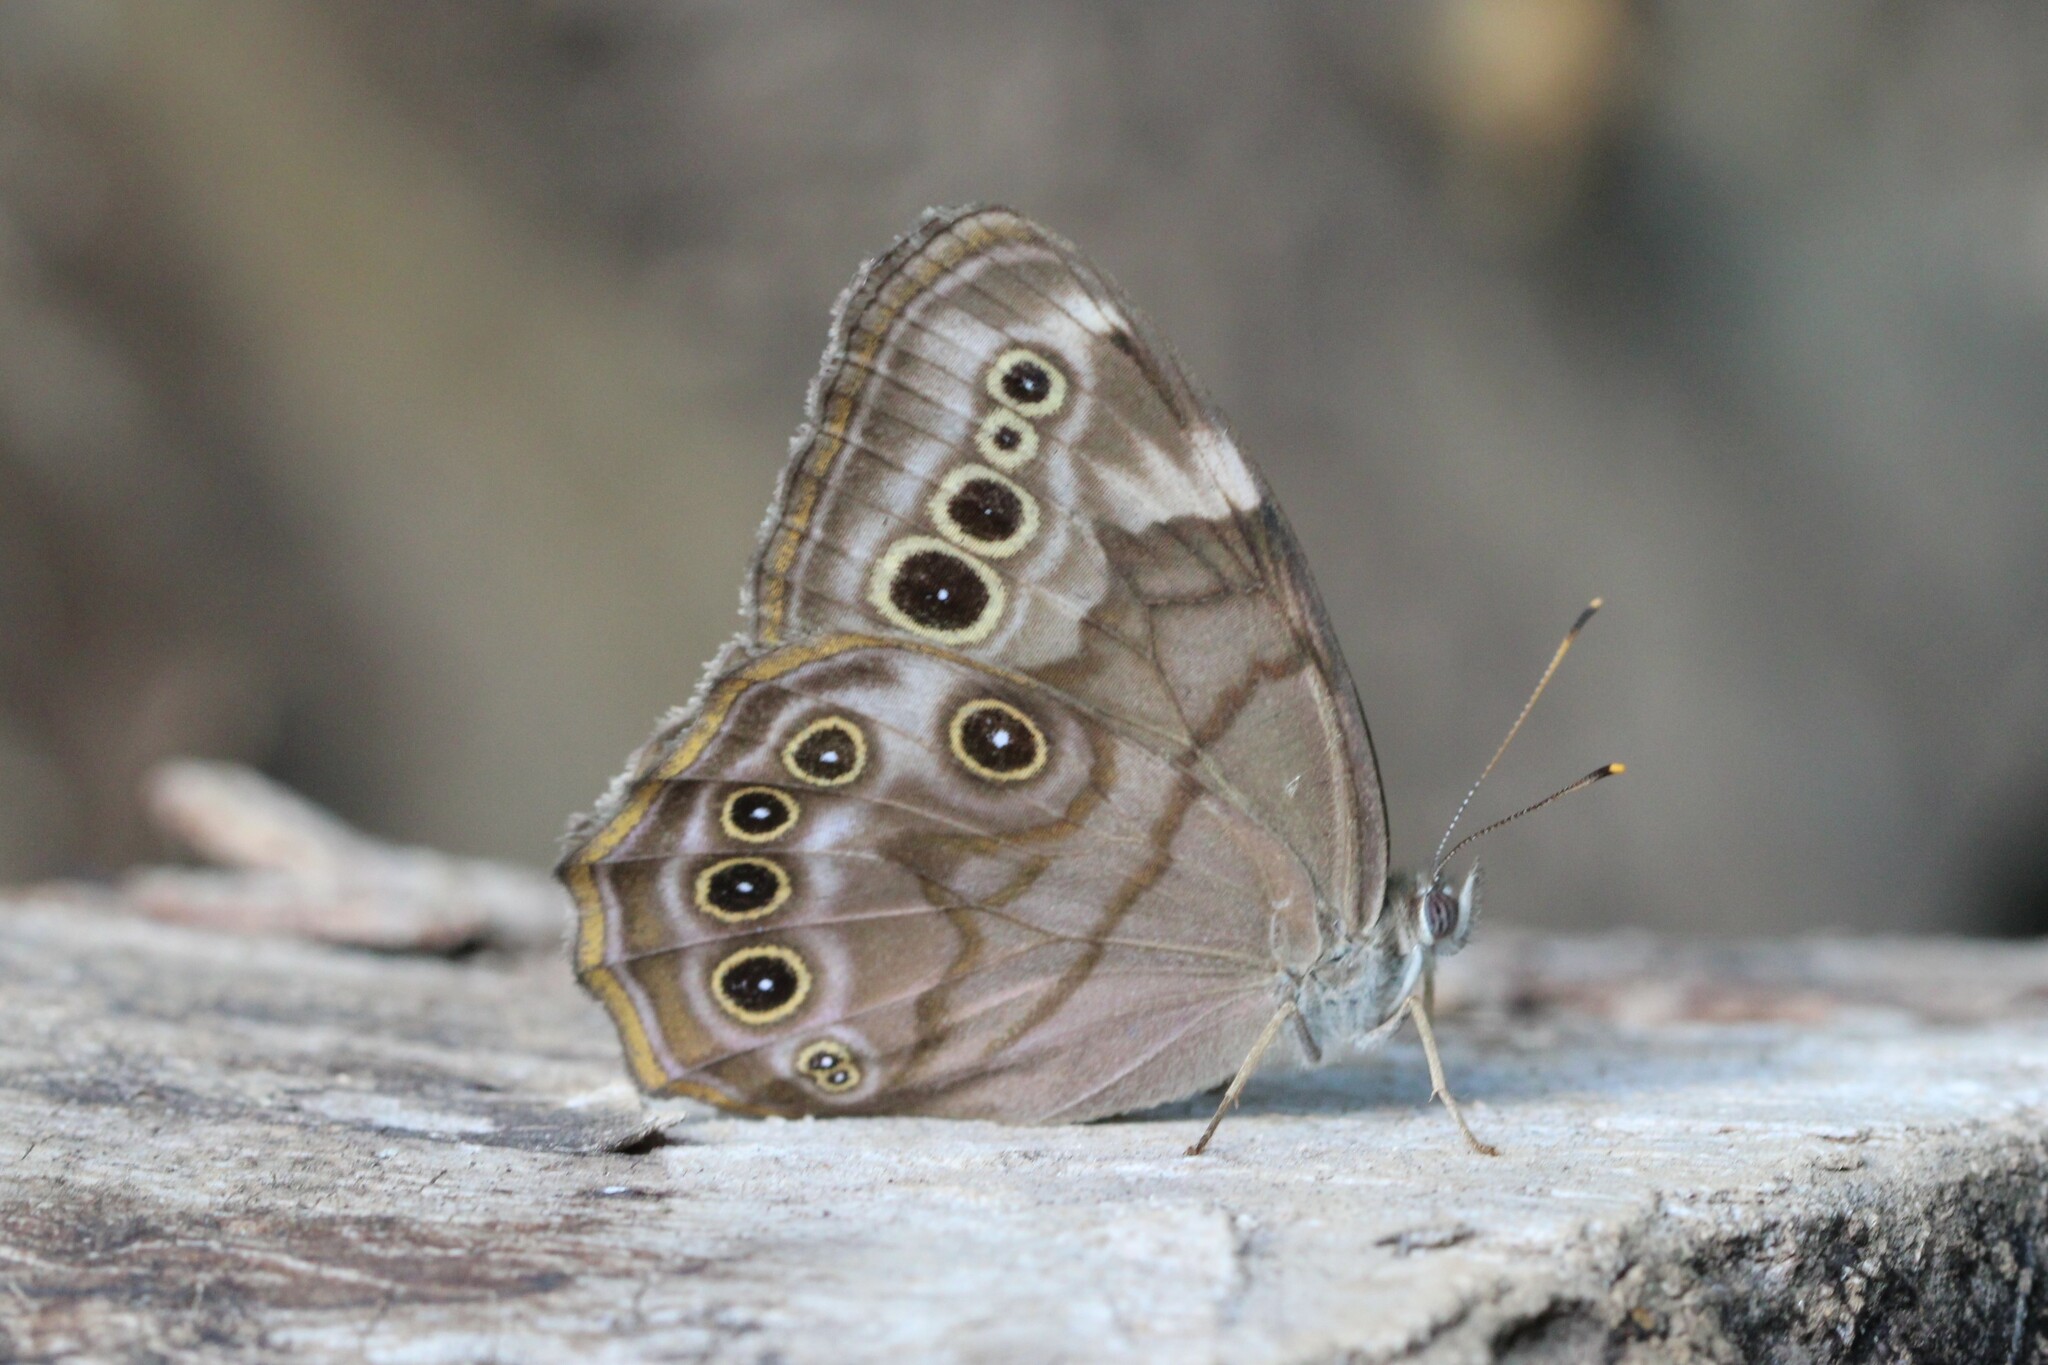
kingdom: Animalia
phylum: Arthropoda
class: Insecta
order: Lepidoptera
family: Nymphalidae
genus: Lethe
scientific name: Lethe anthedon
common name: Northern pearly-eye
